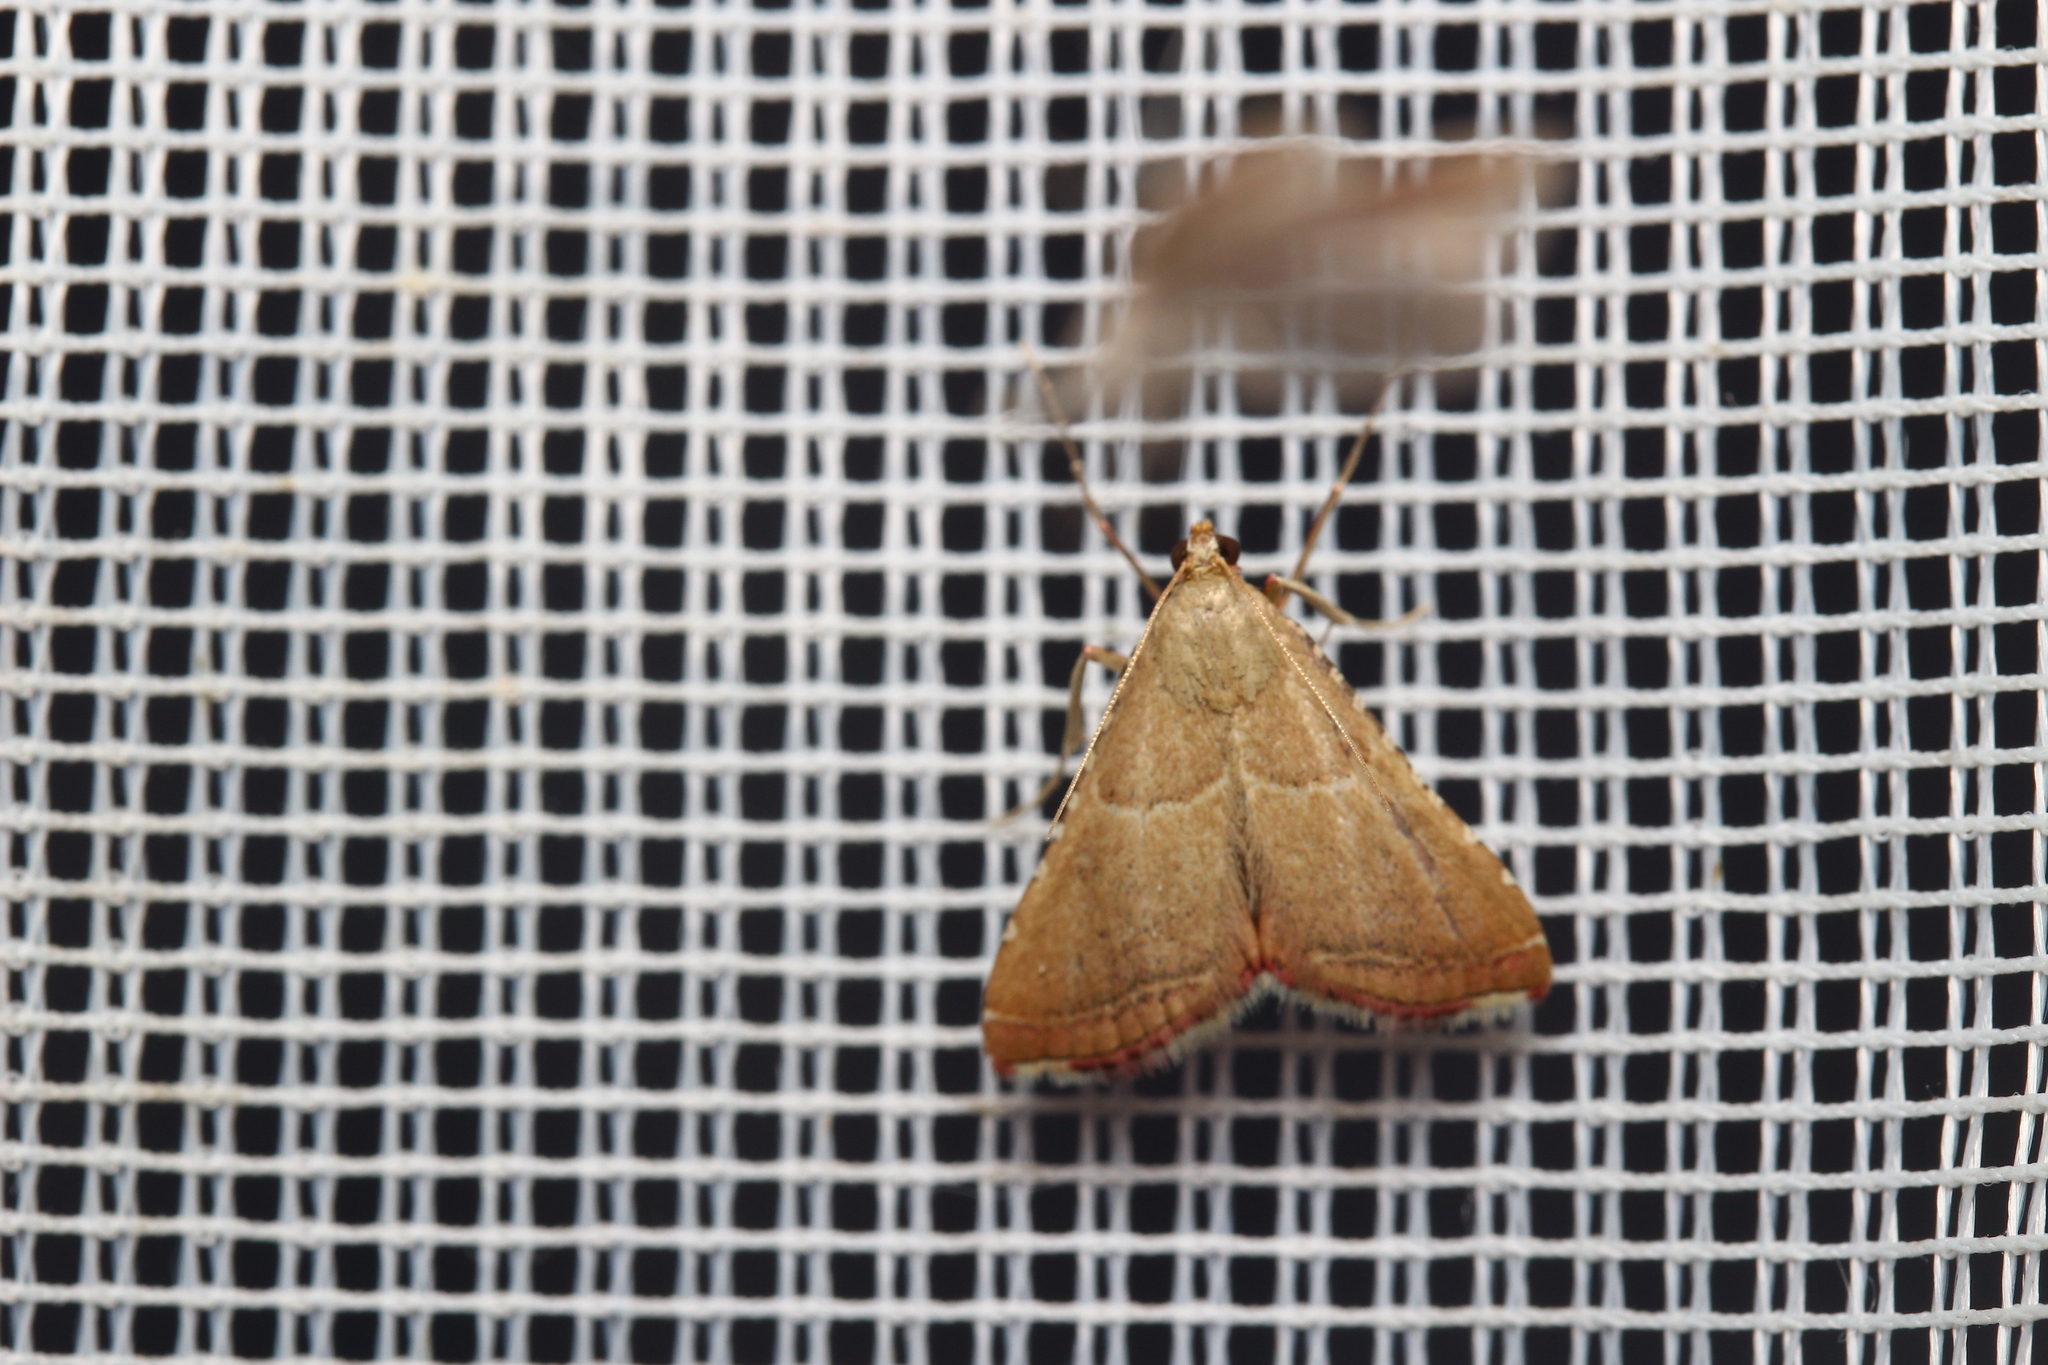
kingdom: Animalia
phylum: Arthropoda
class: Insecta
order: Lepidoptera
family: Pyralidae
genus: Endotricha
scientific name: Endotricha flammealis
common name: Rosy tabby
